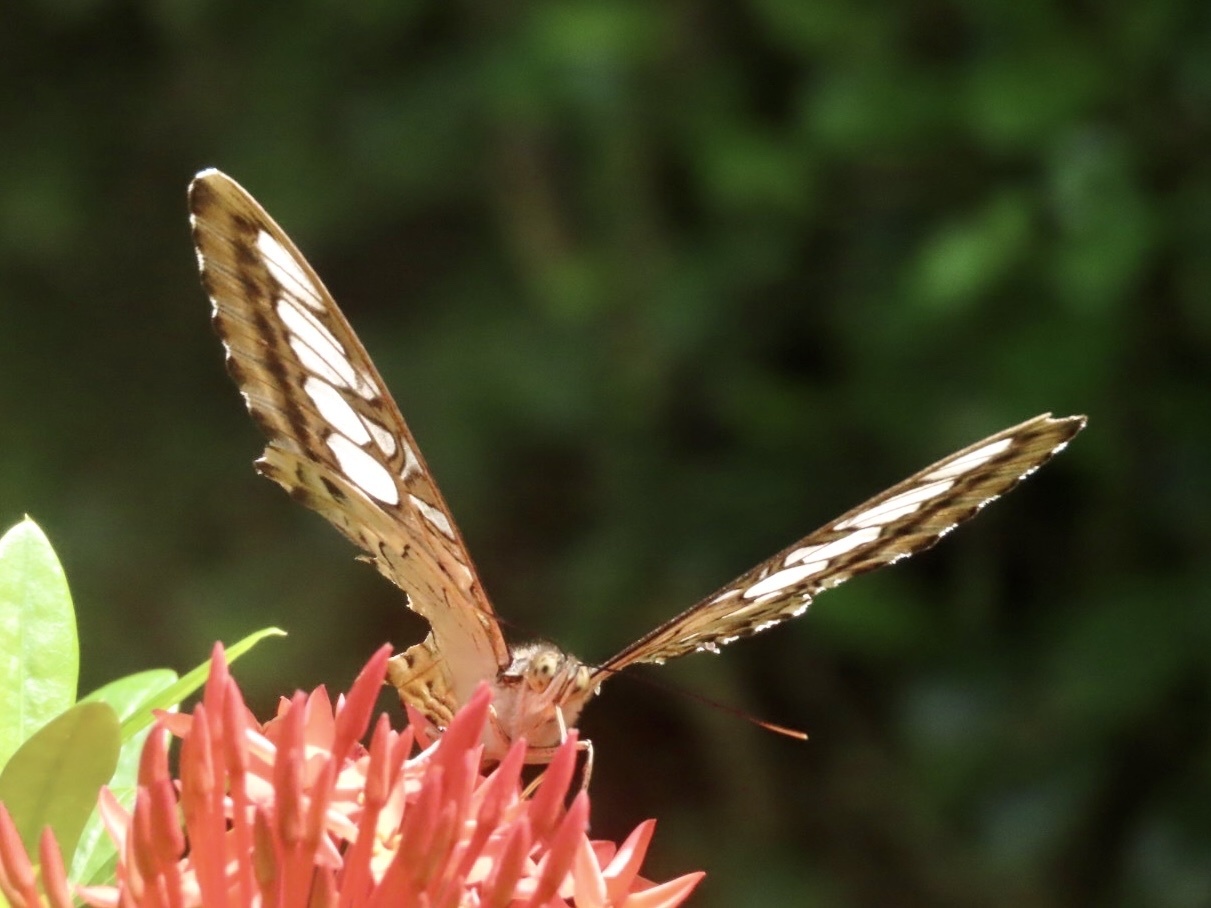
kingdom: Animalia
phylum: Arthropoda
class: Insecta
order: Lepidoptera
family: Nymphalidae
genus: Kallima
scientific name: Kallima sylvia
